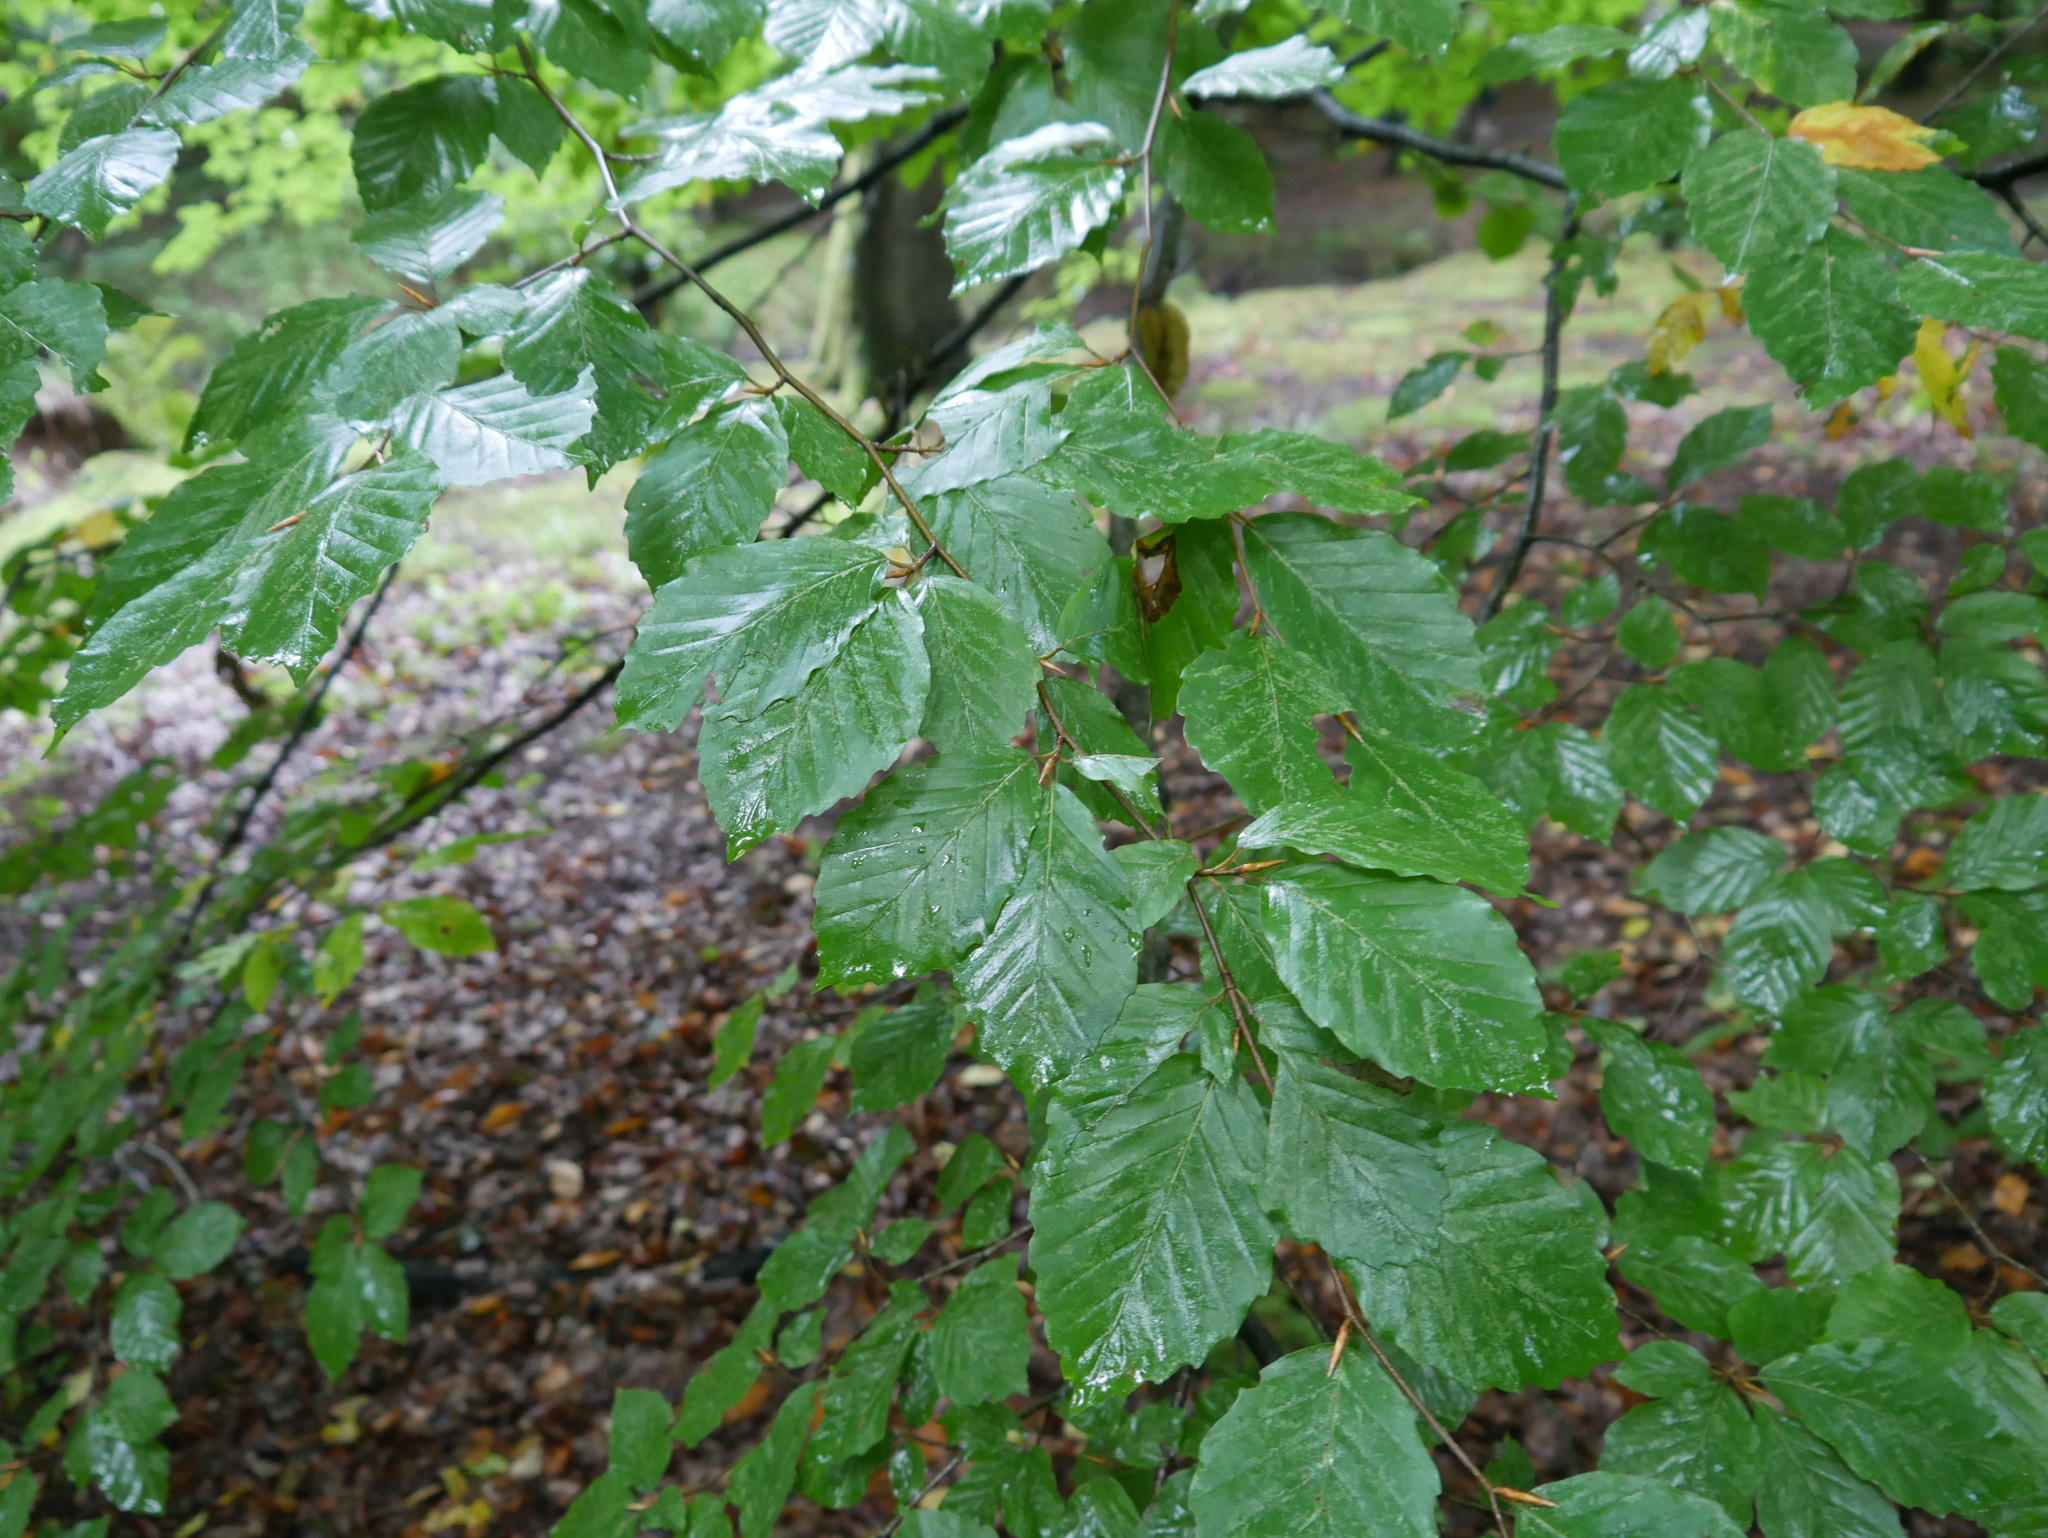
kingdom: Plantae
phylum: Tracheophyta
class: Magnoliopsida
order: Fagales
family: Fagaceae
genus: Fagus
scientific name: Fagus sylvatica
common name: Beech
